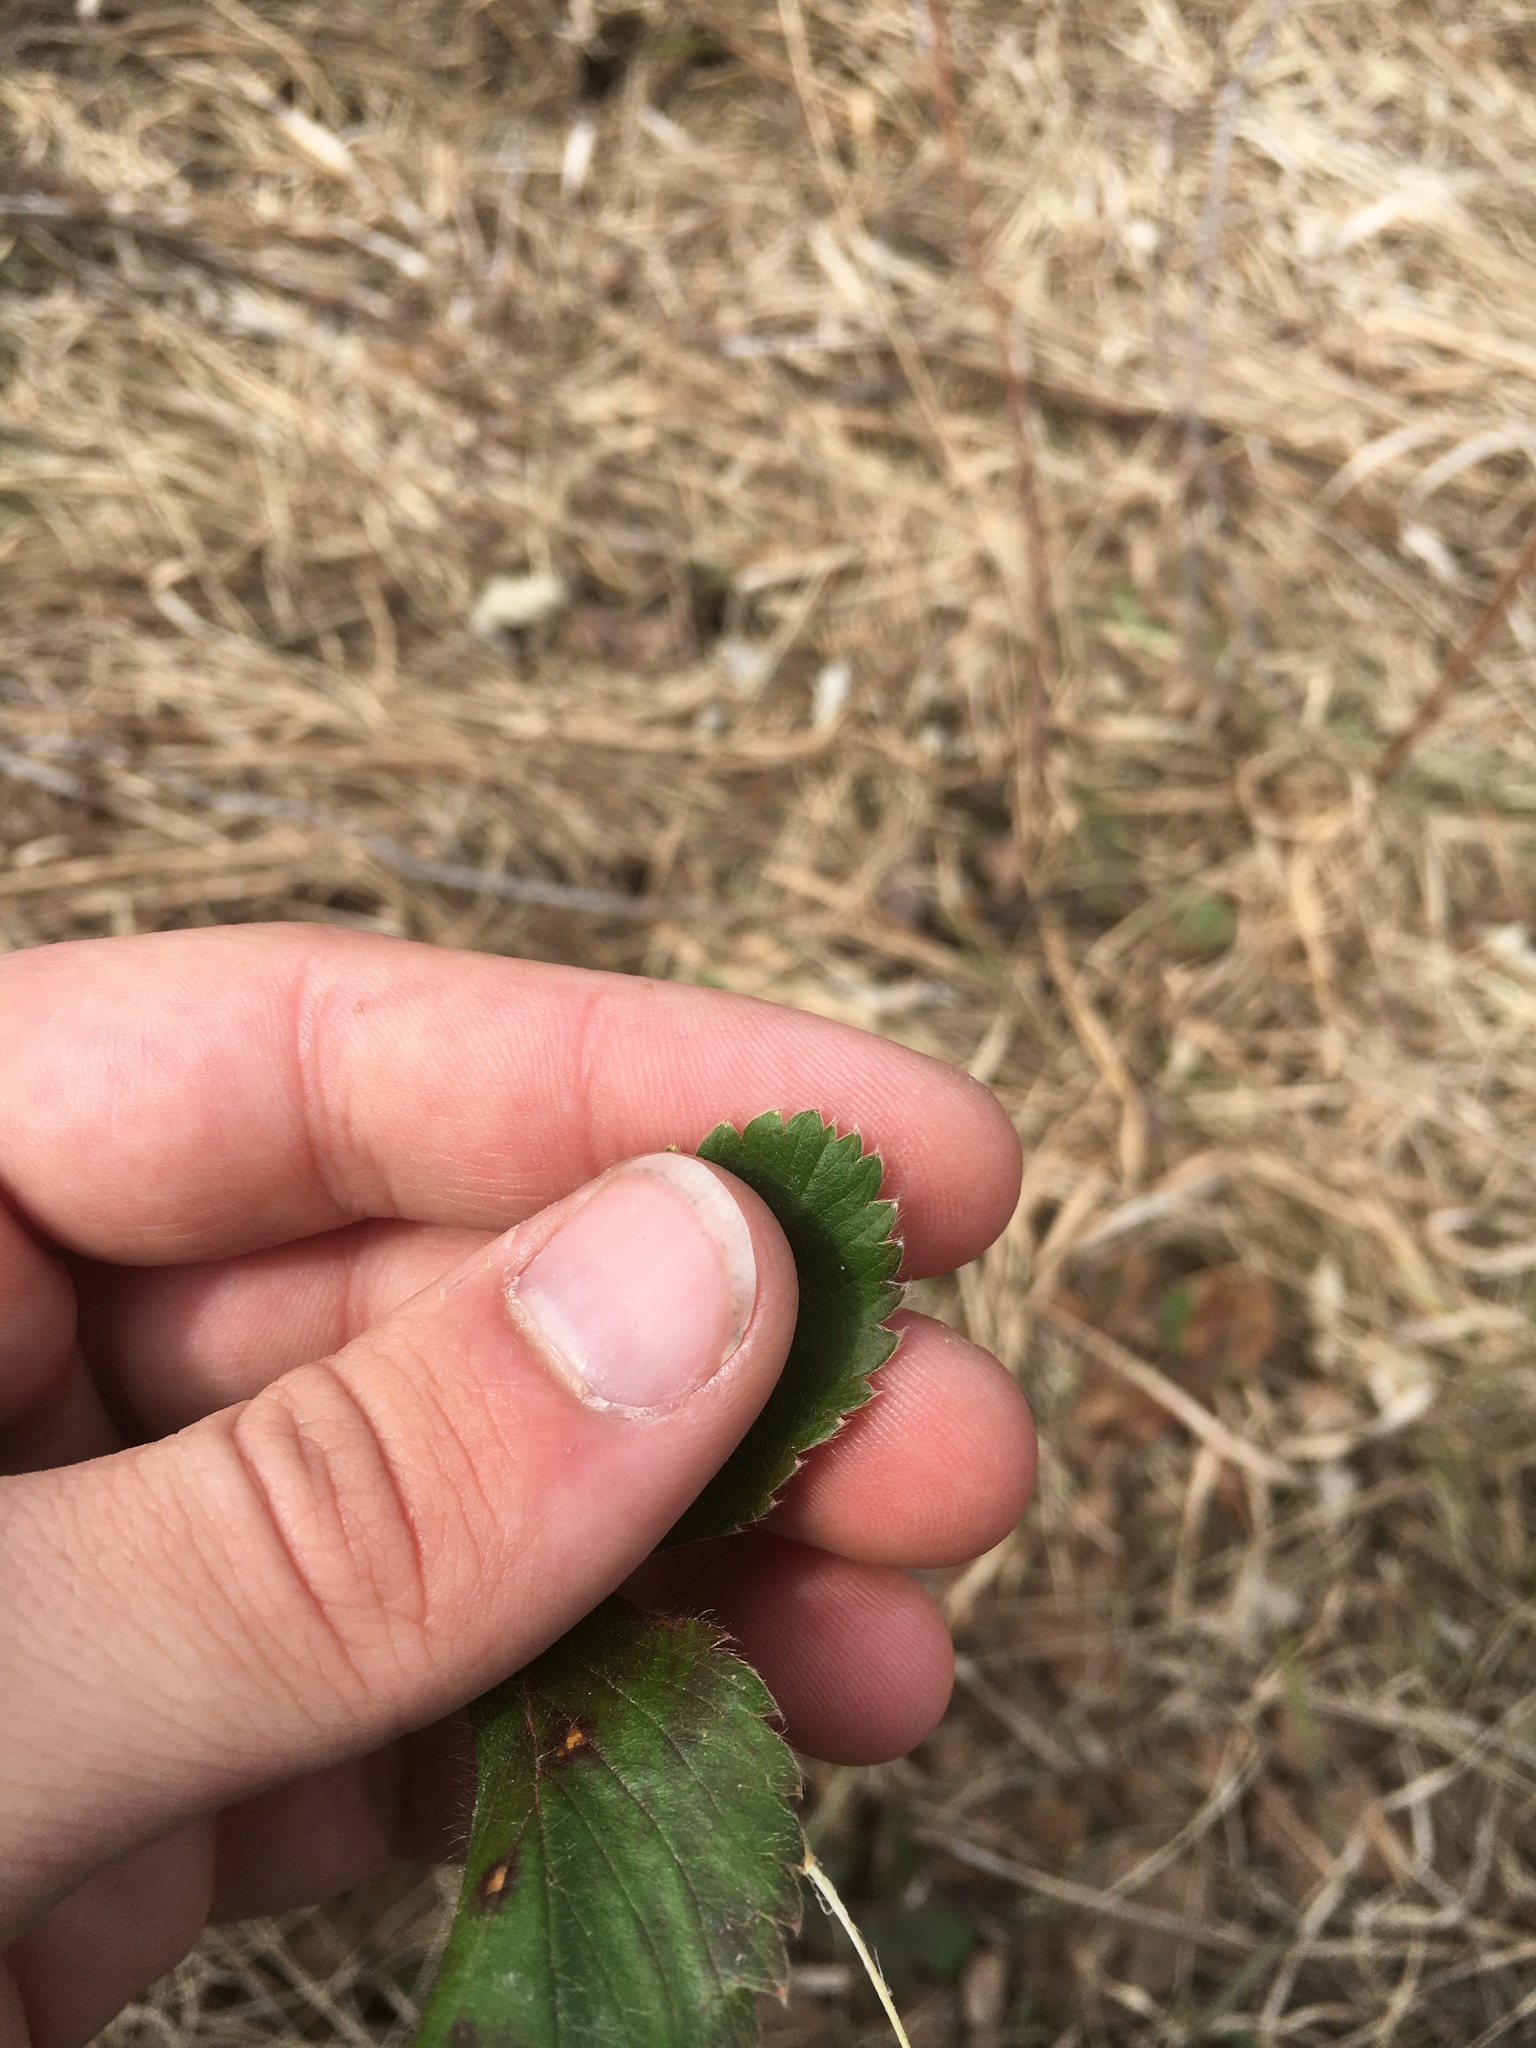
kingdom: Plantae
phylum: Tracheophyta
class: Magnoliopsida
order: Rosales
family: Rosaceae
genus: Fragaria
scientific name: Fragaria virginiana
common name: Thickleaved wild strawberry
